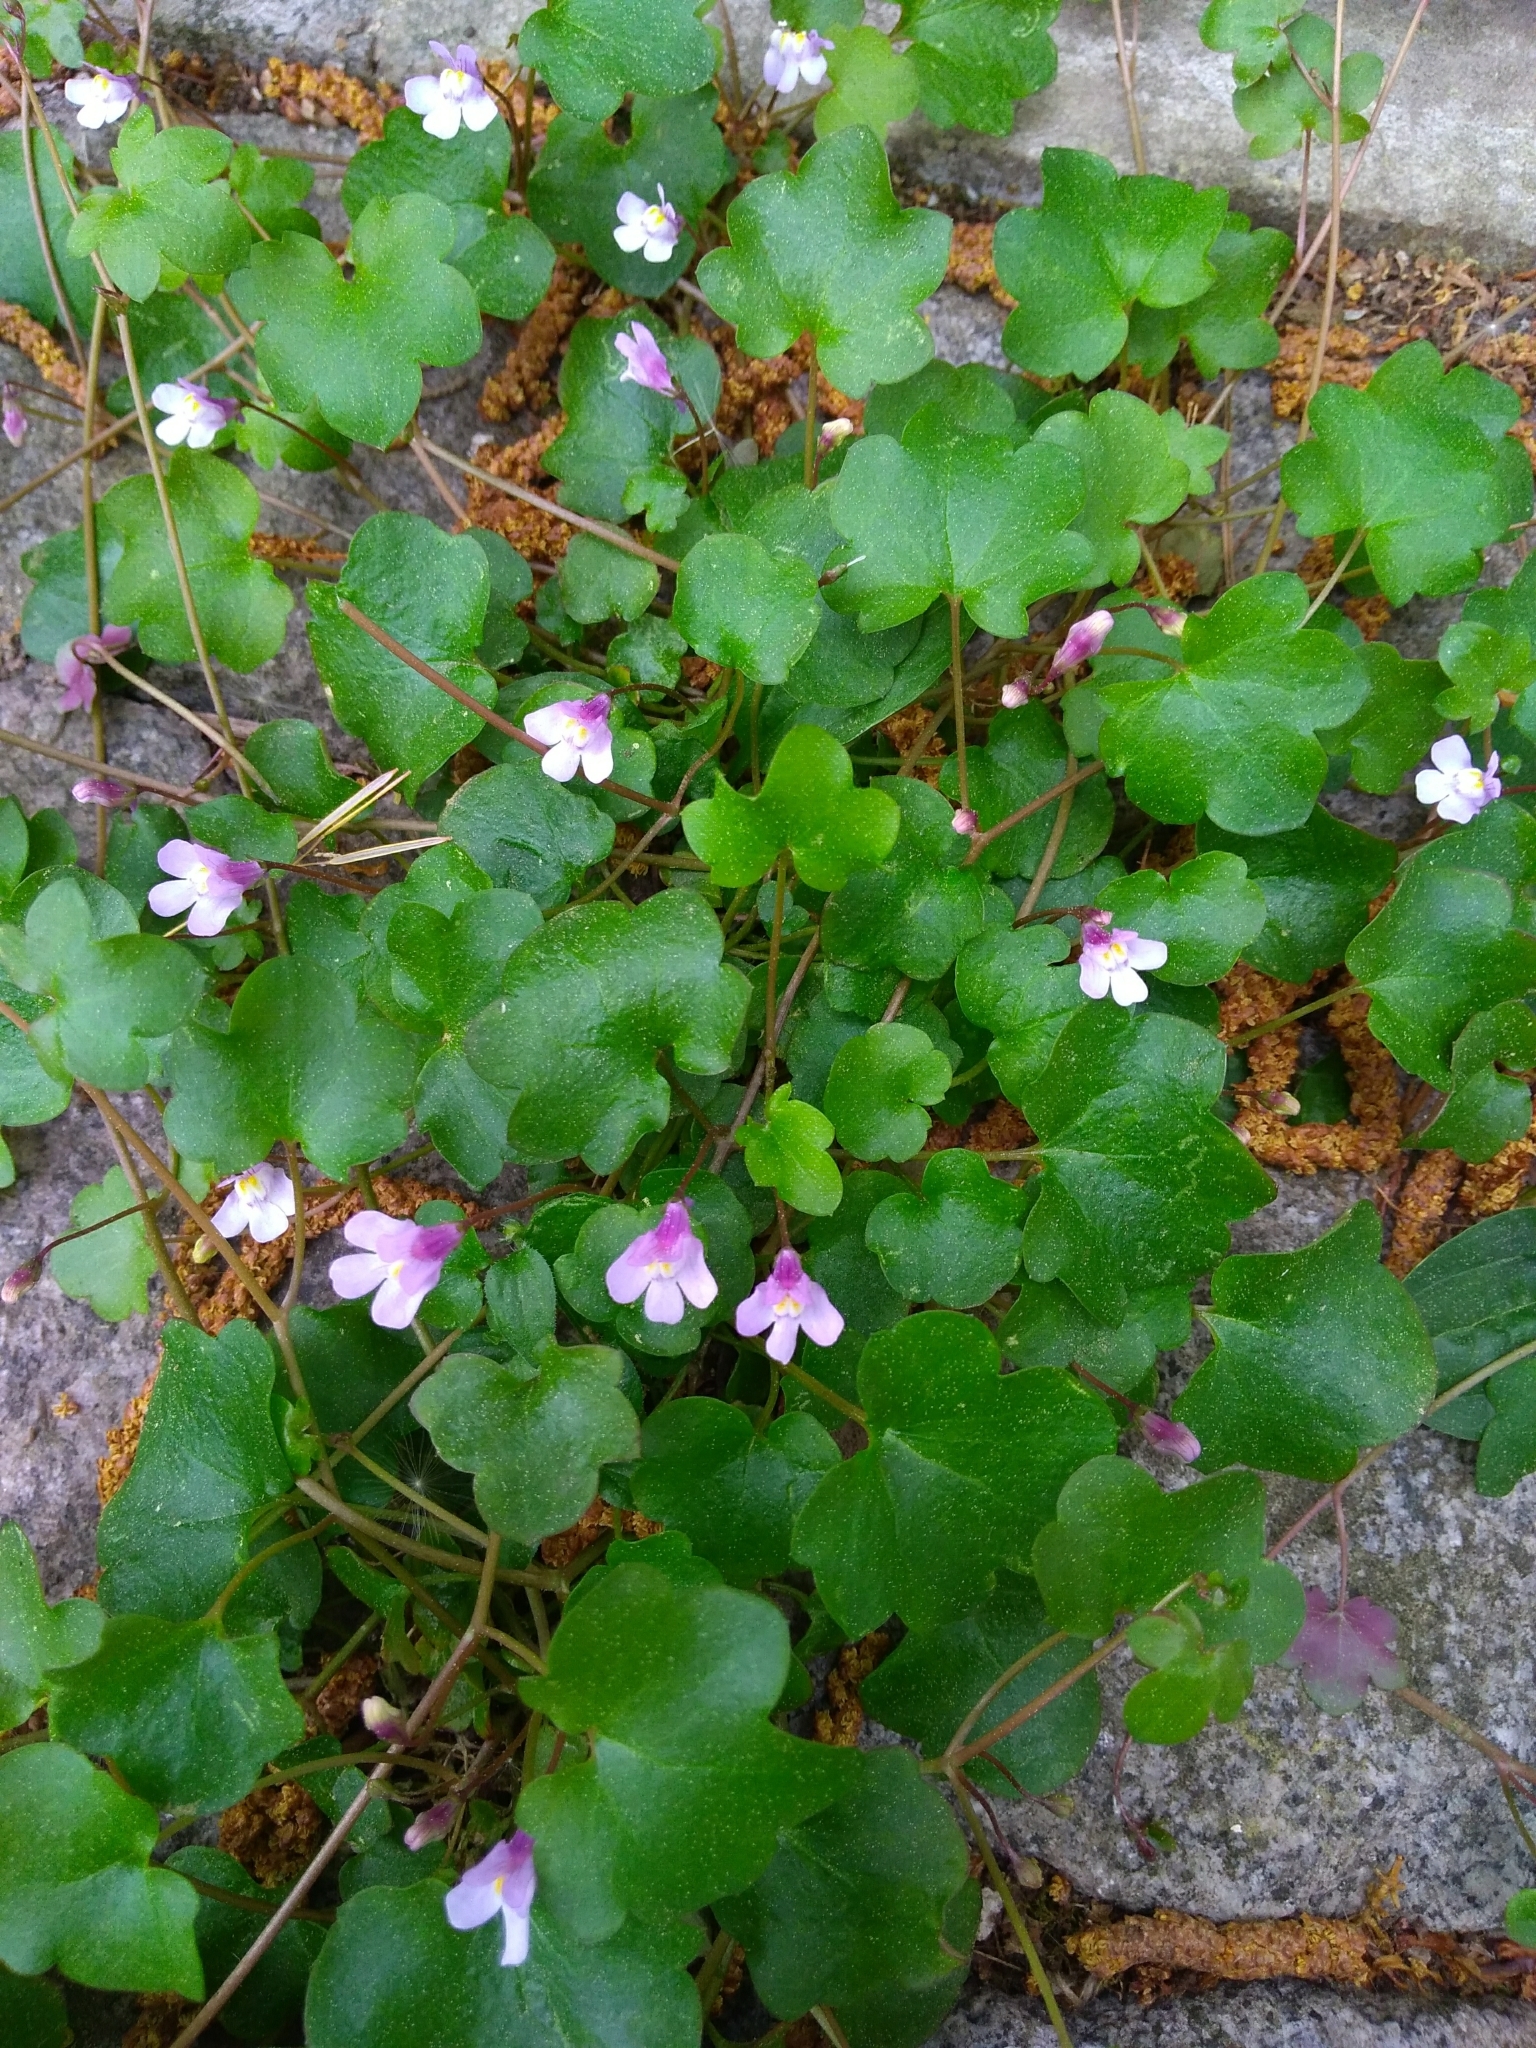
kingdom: Plantae
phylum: Tracheophyta
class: Magnoliopsida
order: Lamiales
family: Plantaginaceae
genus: Cymbalaria
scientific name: Cymbalaria muralis
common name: Ivy-leaved toadflax
